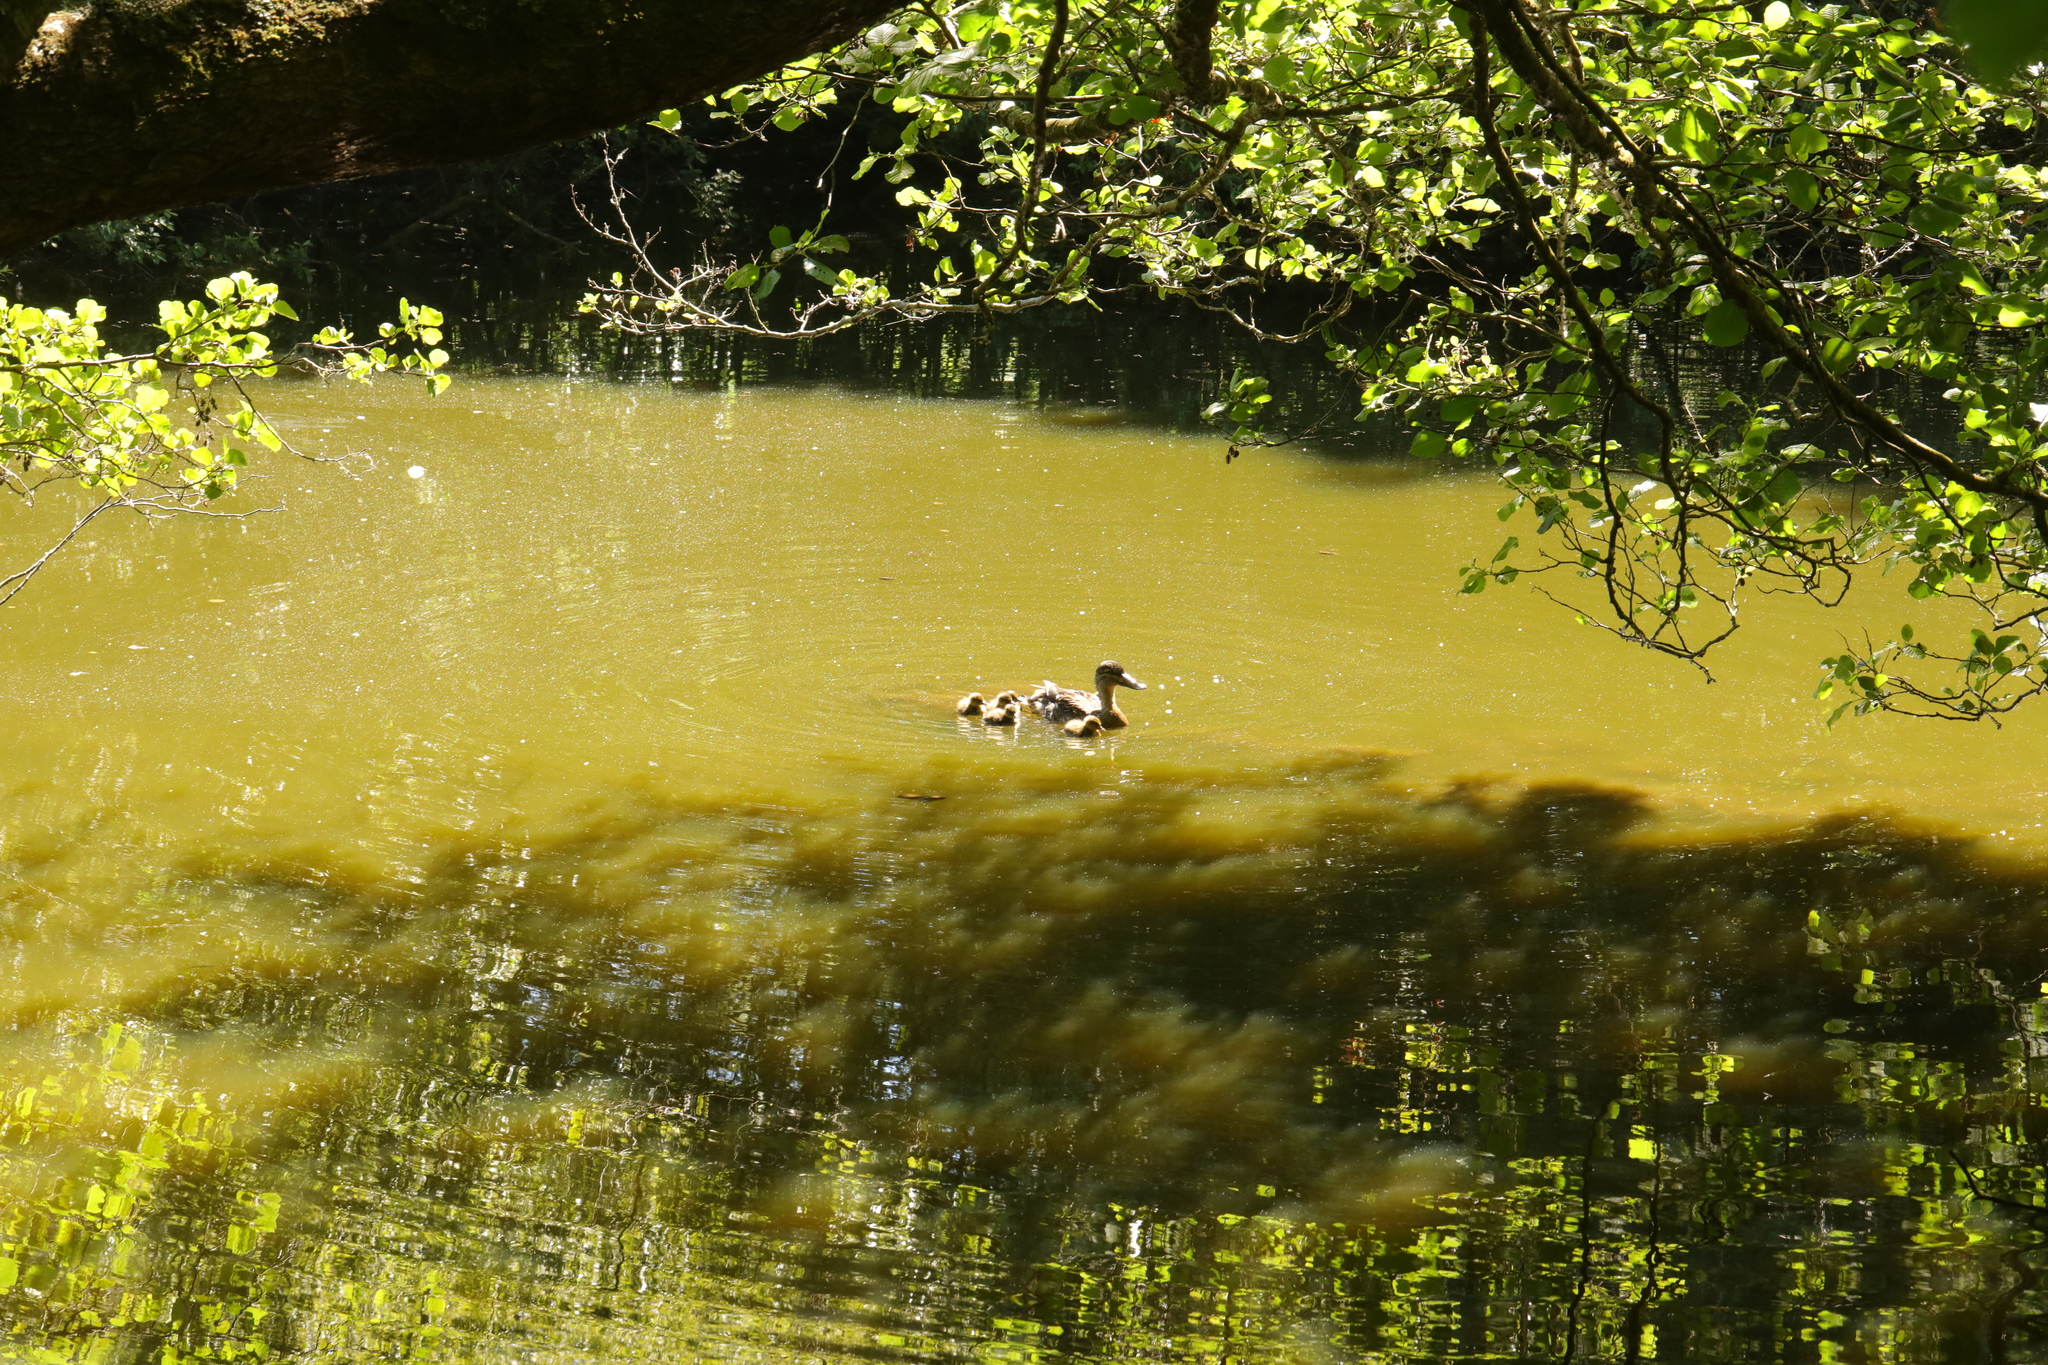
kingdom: Animalia
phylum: Chordata
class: Aves
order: Anseriformes
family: Anatidae
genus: Anas
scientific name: Anas platyrhynchos
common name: Mallard
